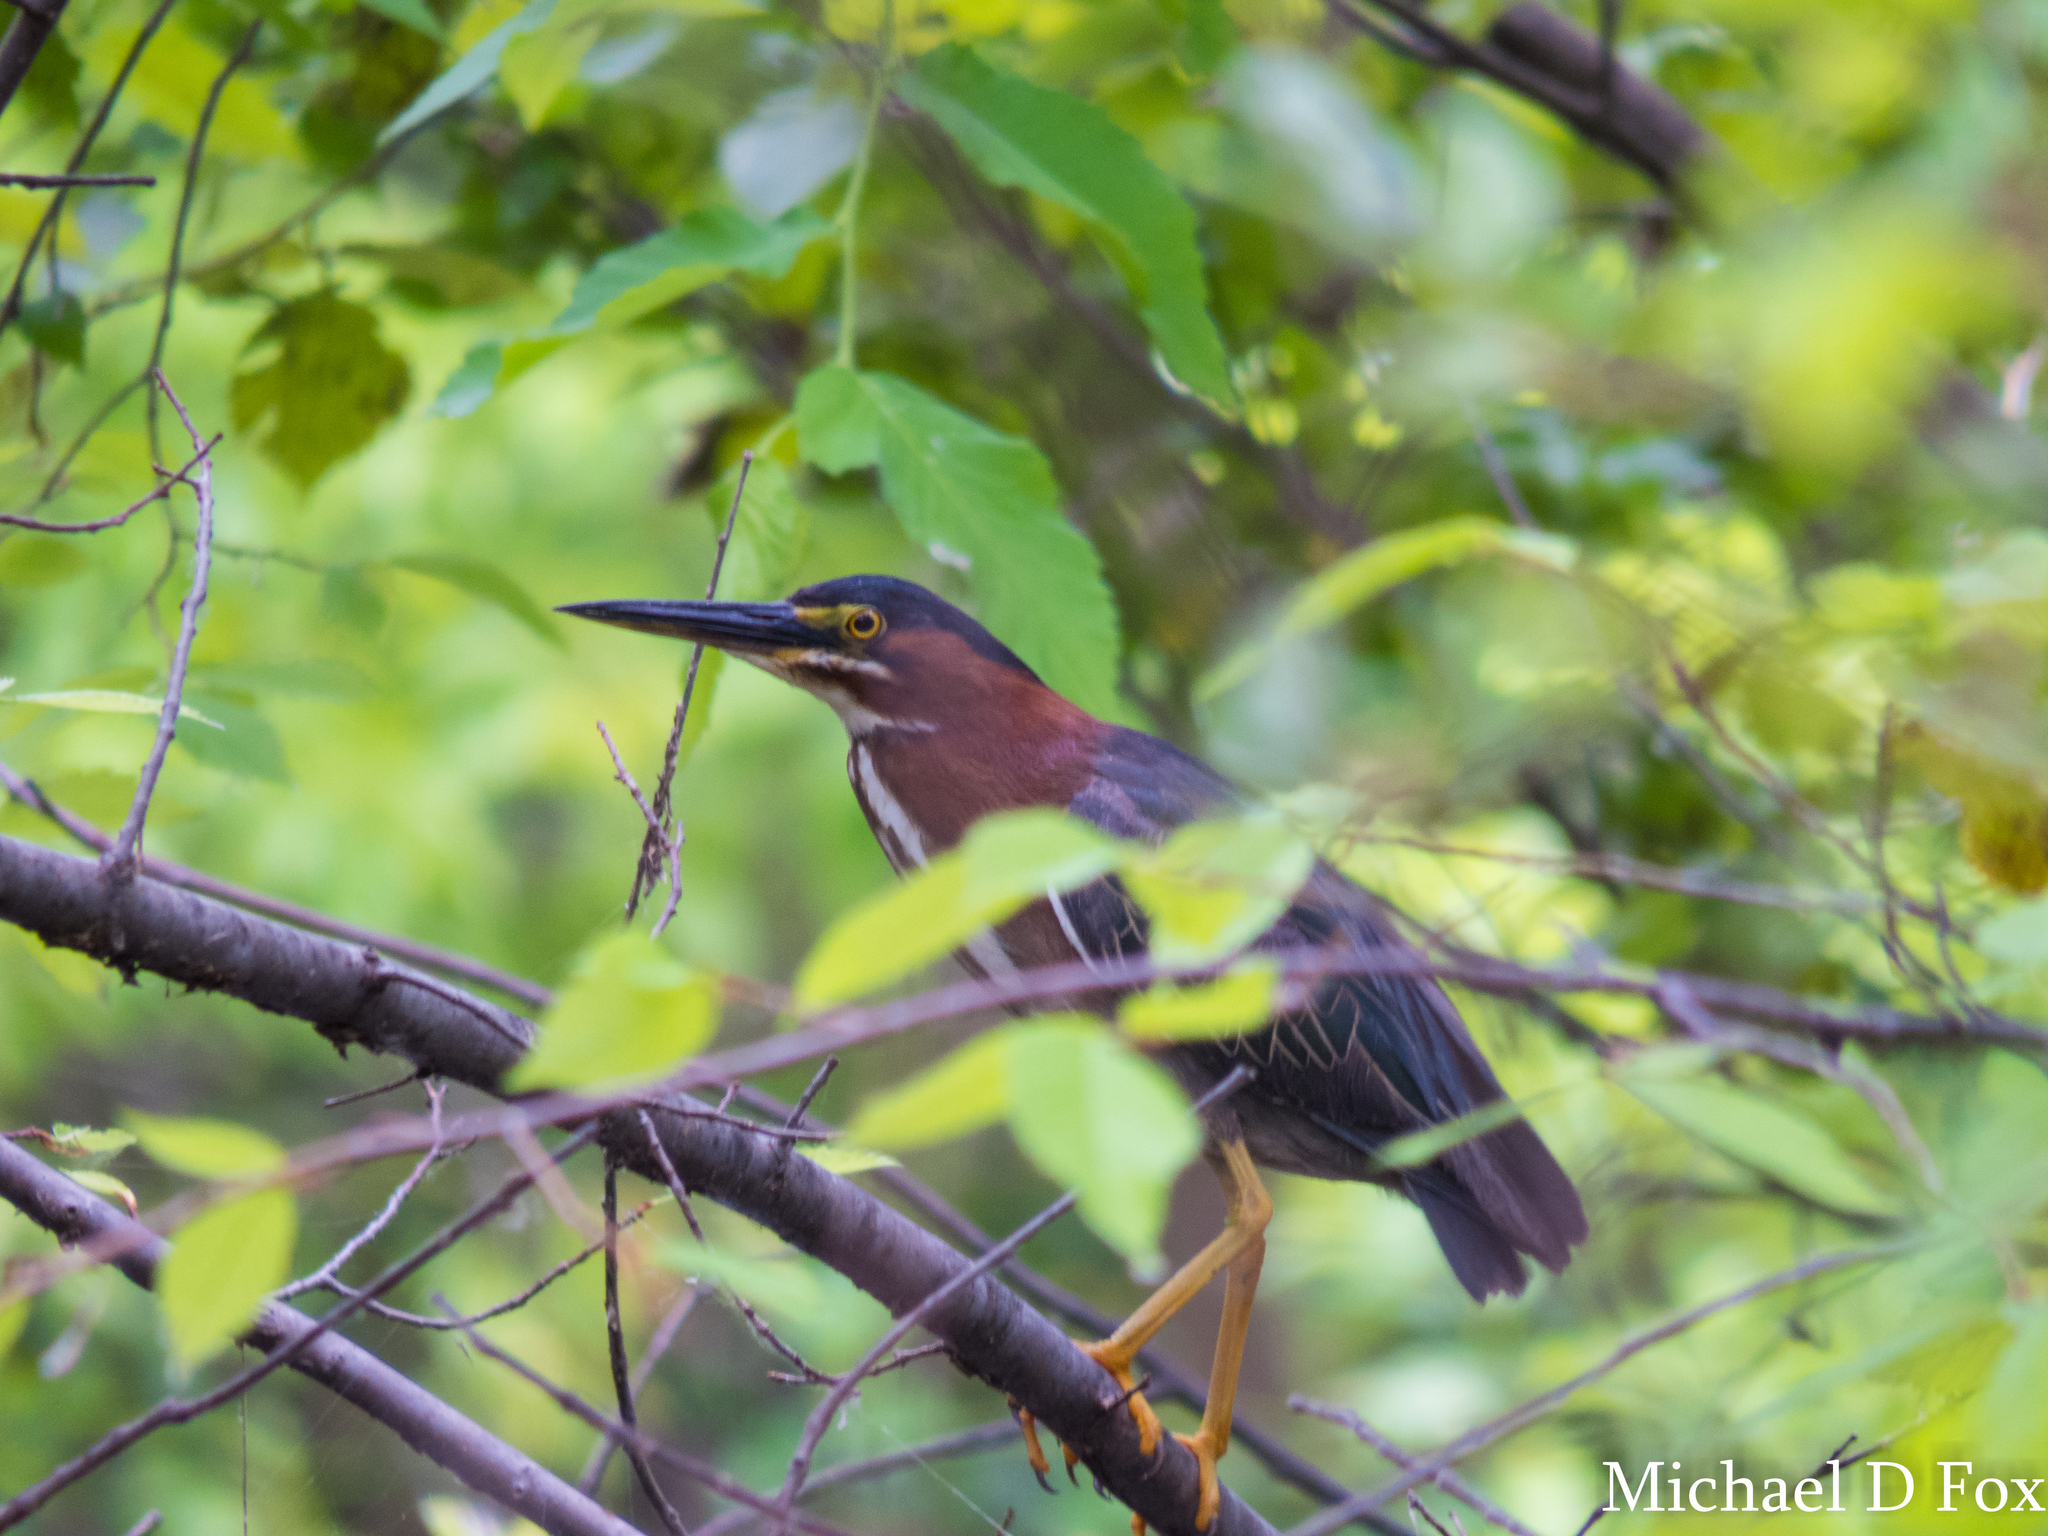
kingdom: Animalia
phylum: Chordata
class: Aves
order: Pelecaniformes
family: Ardeidae
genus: Butorides
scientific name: Butorides virescens
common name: Green heron
